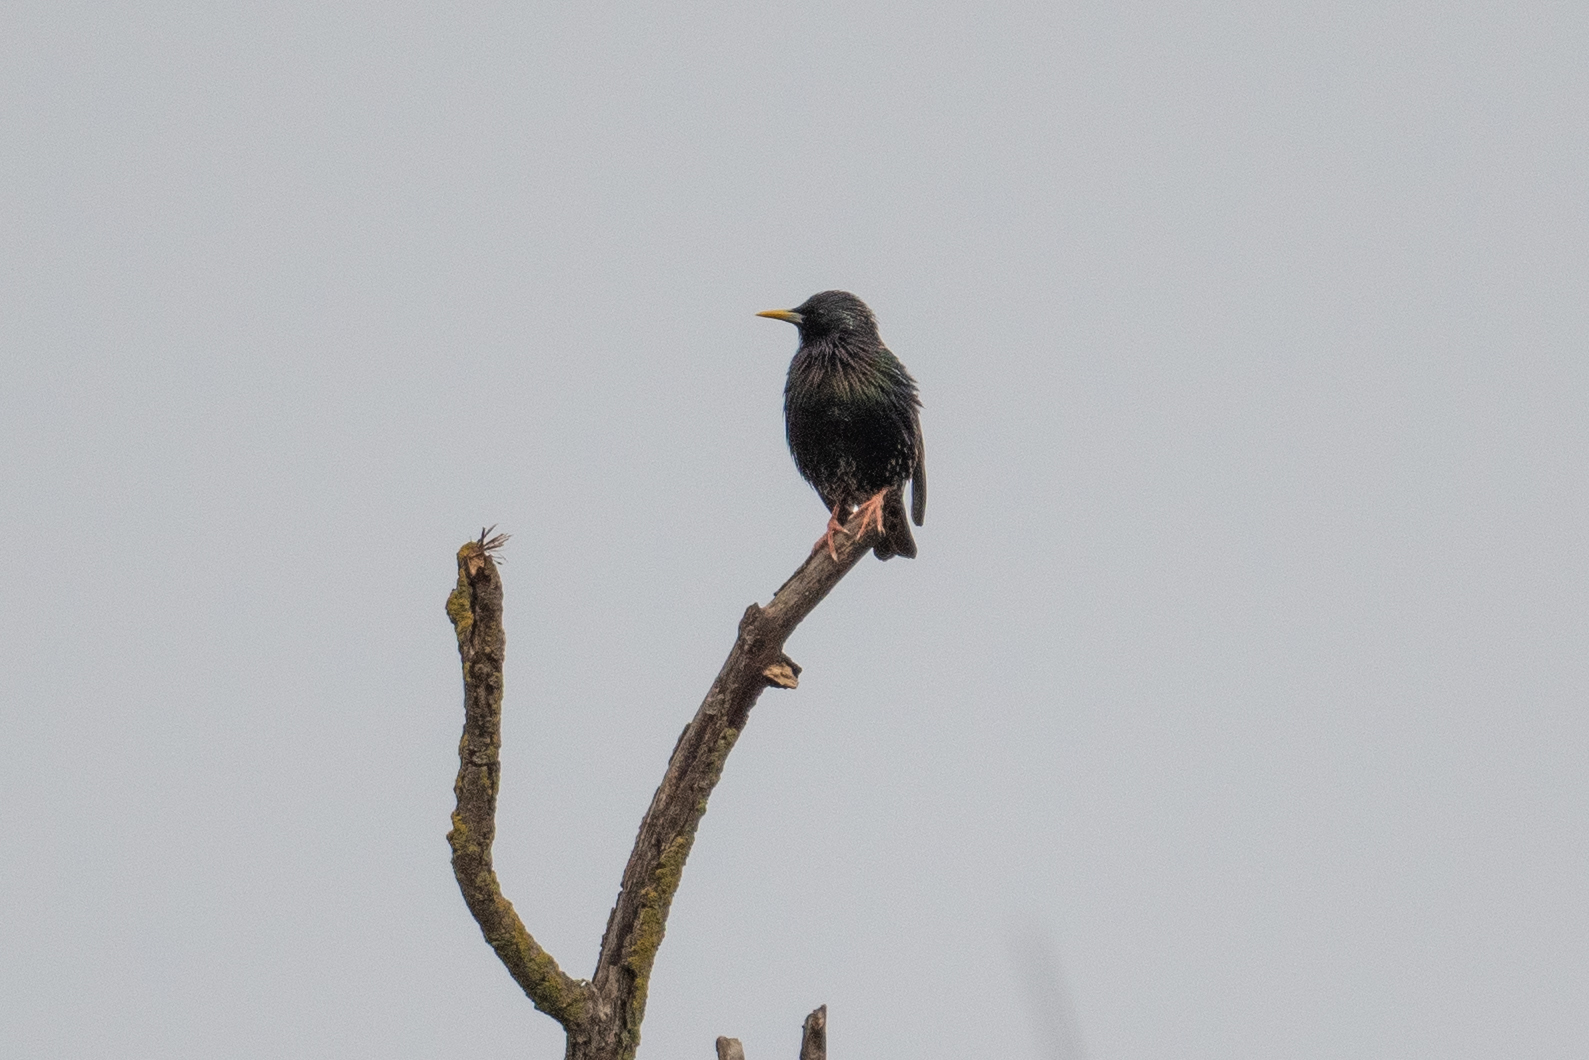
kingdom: Animalia
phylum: Chordata
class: Aves
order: Passeriformes
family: Sturnidae
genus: Sturnus
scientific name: Sturnus vulgaris
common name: Common starling
